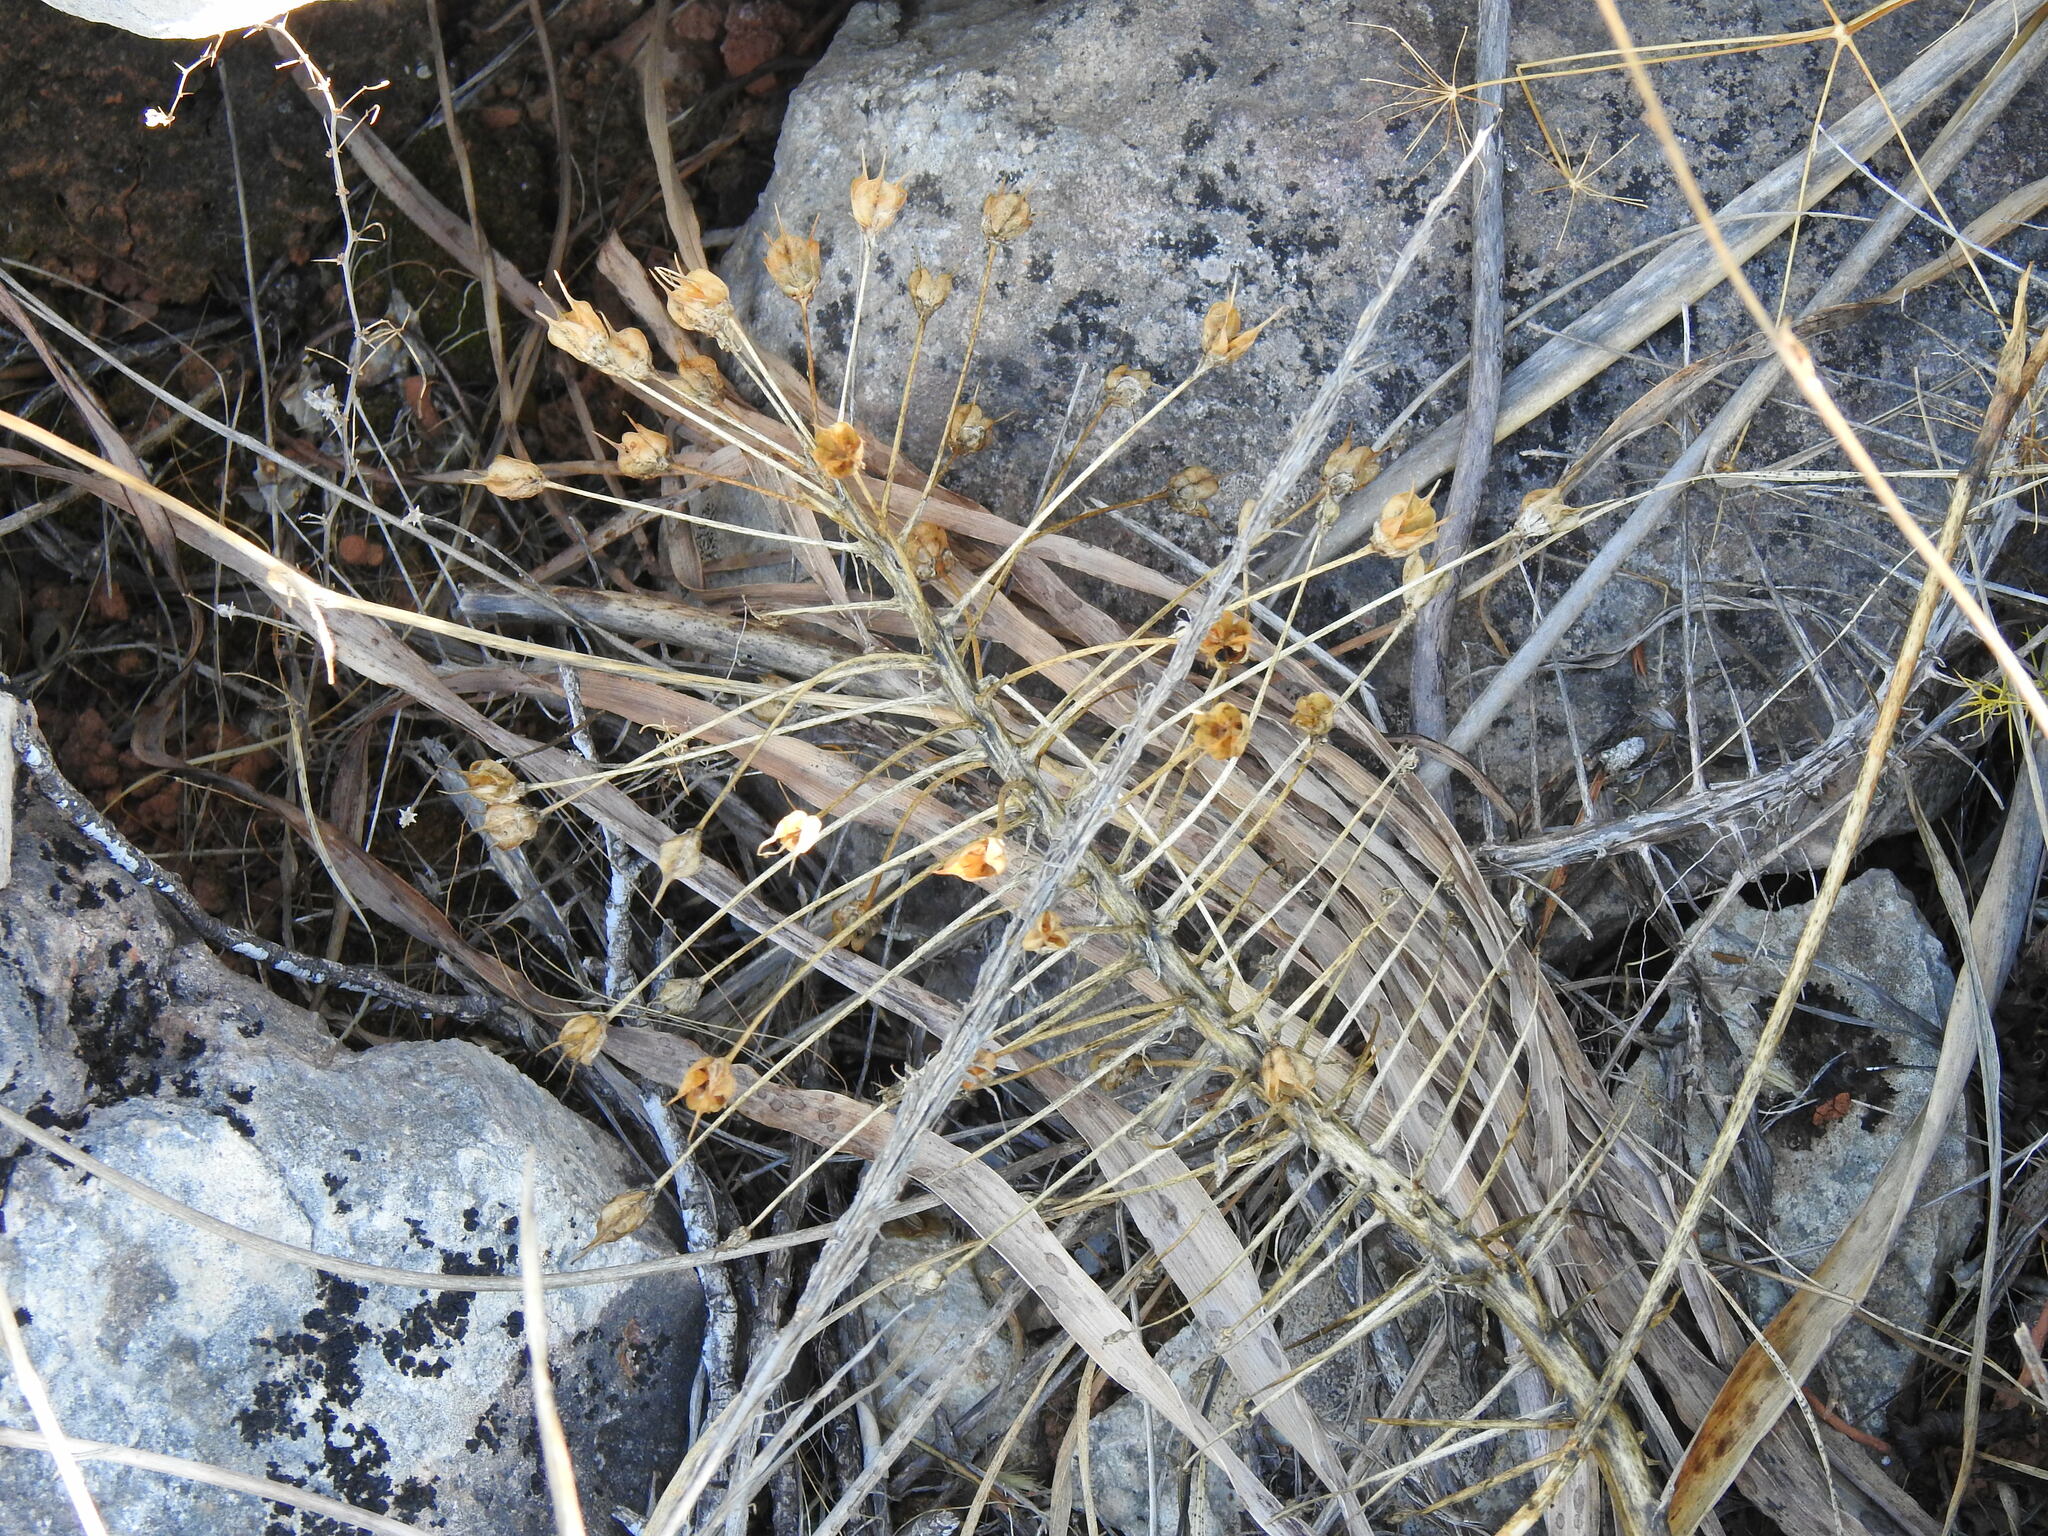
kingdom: Plantae
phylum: Tracheophyta
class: Liliopsida
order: Asparagales
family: Asparagaceae
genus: Scilla
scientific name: Scilla peruviana
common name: Portuguese squill
